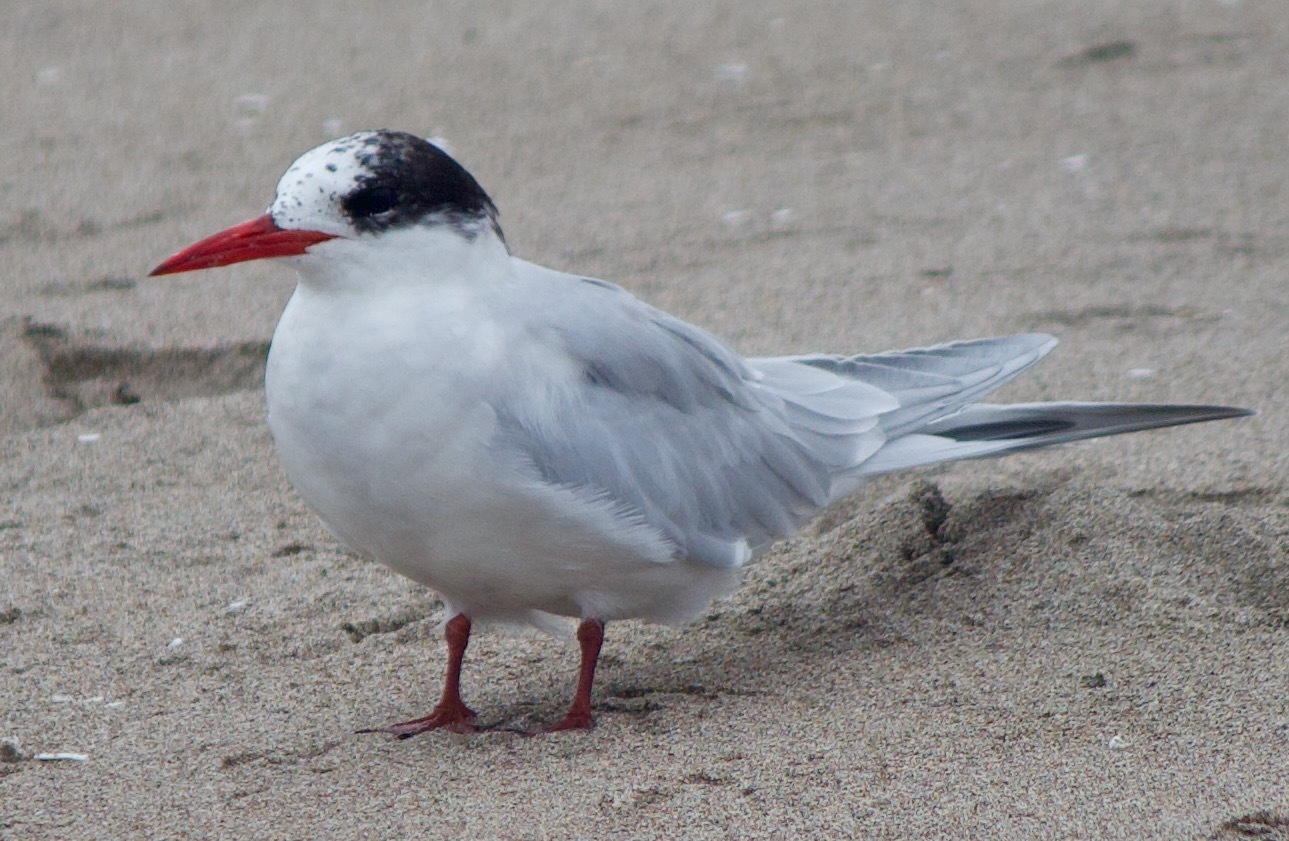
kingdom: Animalia
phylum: Chordata
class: Aves
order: Charadriiformes
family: Laridae
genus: Sterna
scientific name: Sterna hirundinacea
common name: South american tern
